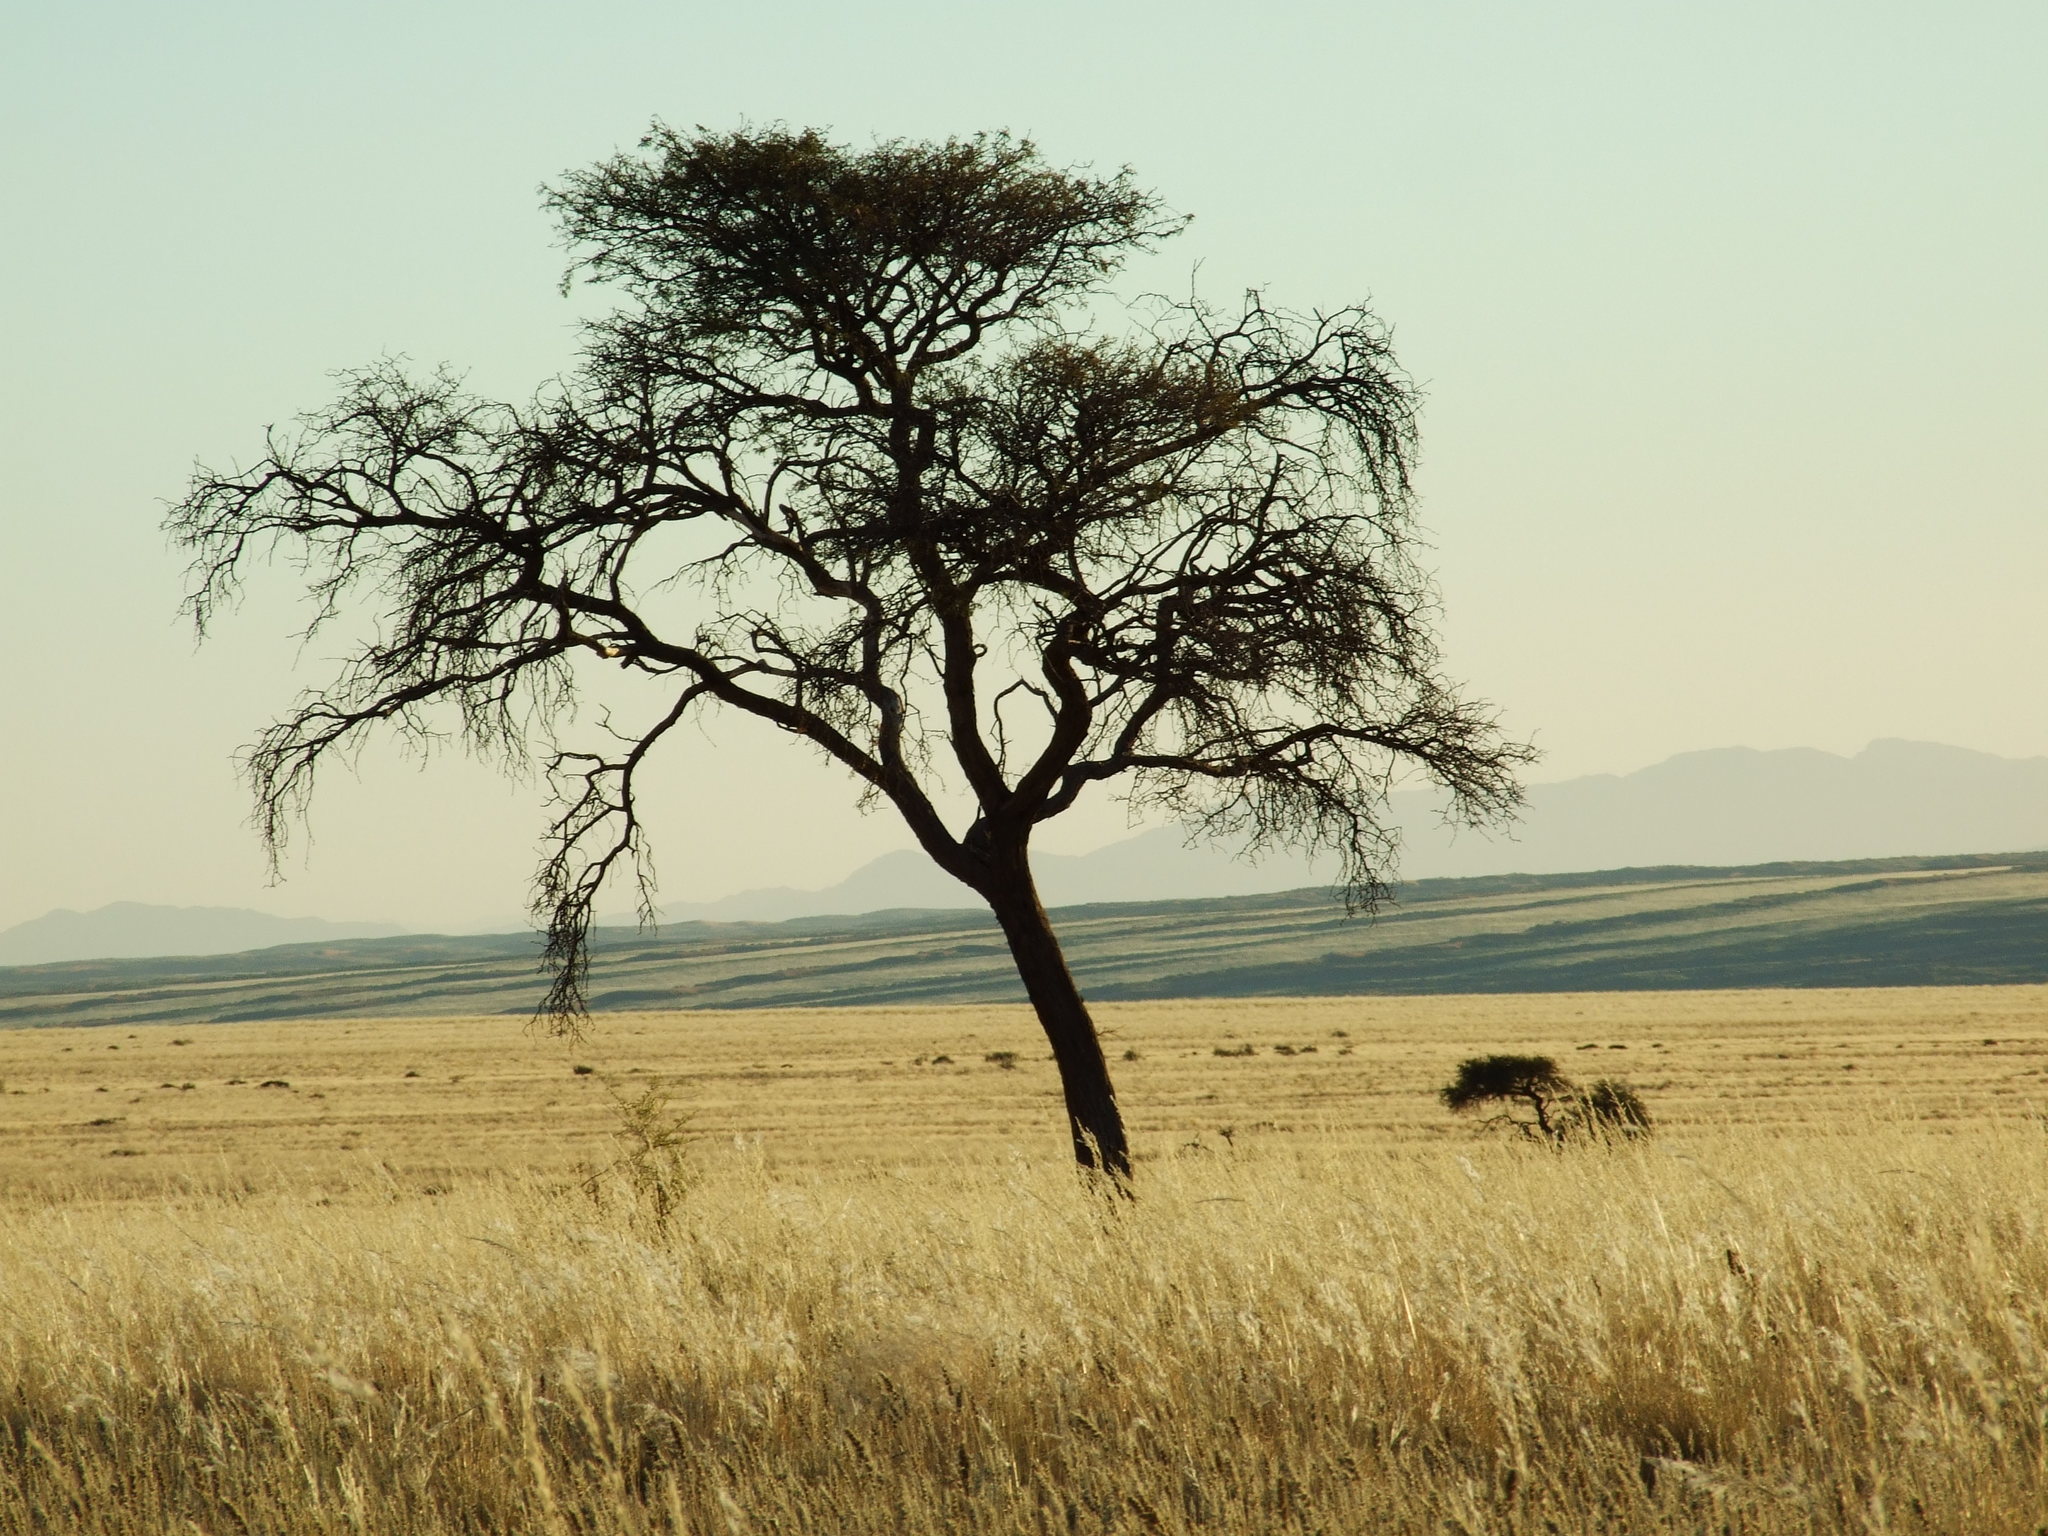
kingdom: Plantae
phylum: Tracheophyta
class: Magnoliopsida
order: Fabales
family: Fabaceae
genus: Vachellia
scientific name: Vachellia erioloba
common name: Camel thorn
